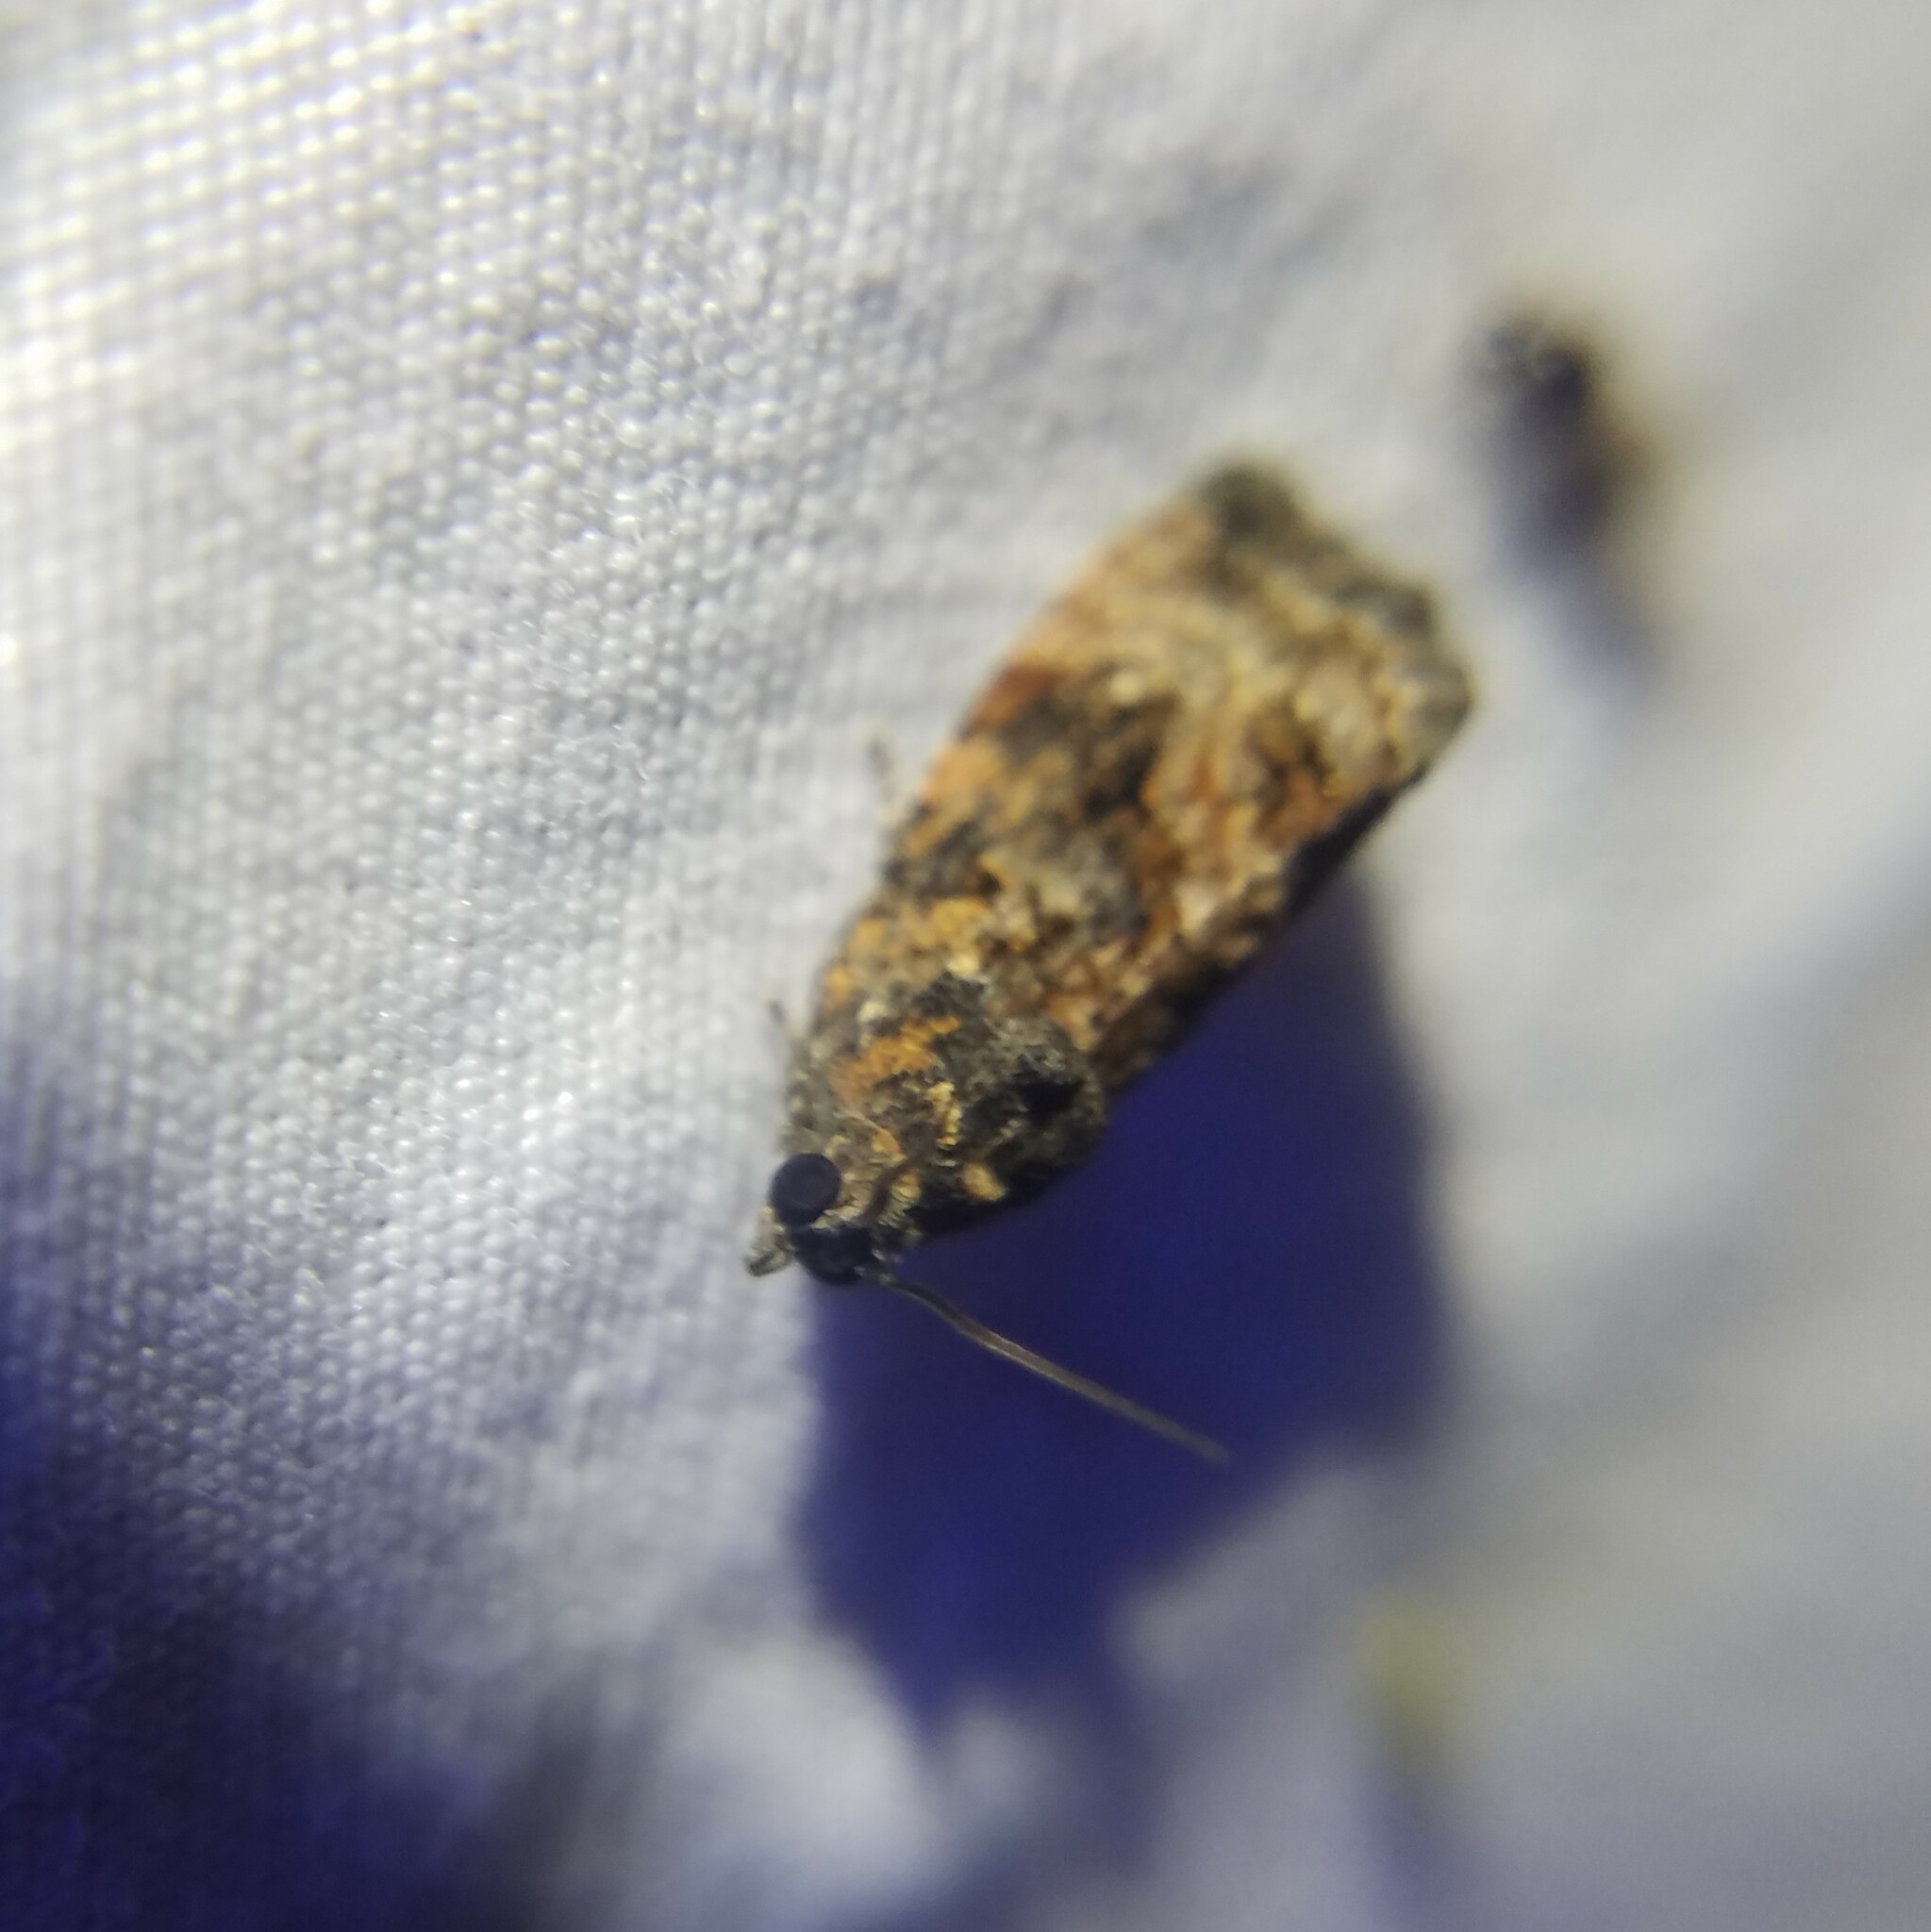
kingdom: Animalia
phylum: Arthropoda
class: Insecta
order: Lepidoptera
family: Tortricidae
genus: Gymnandrosoma
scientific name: Gymnandrosoma punctidiscanum
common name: Dotted ecdytolopha moth
